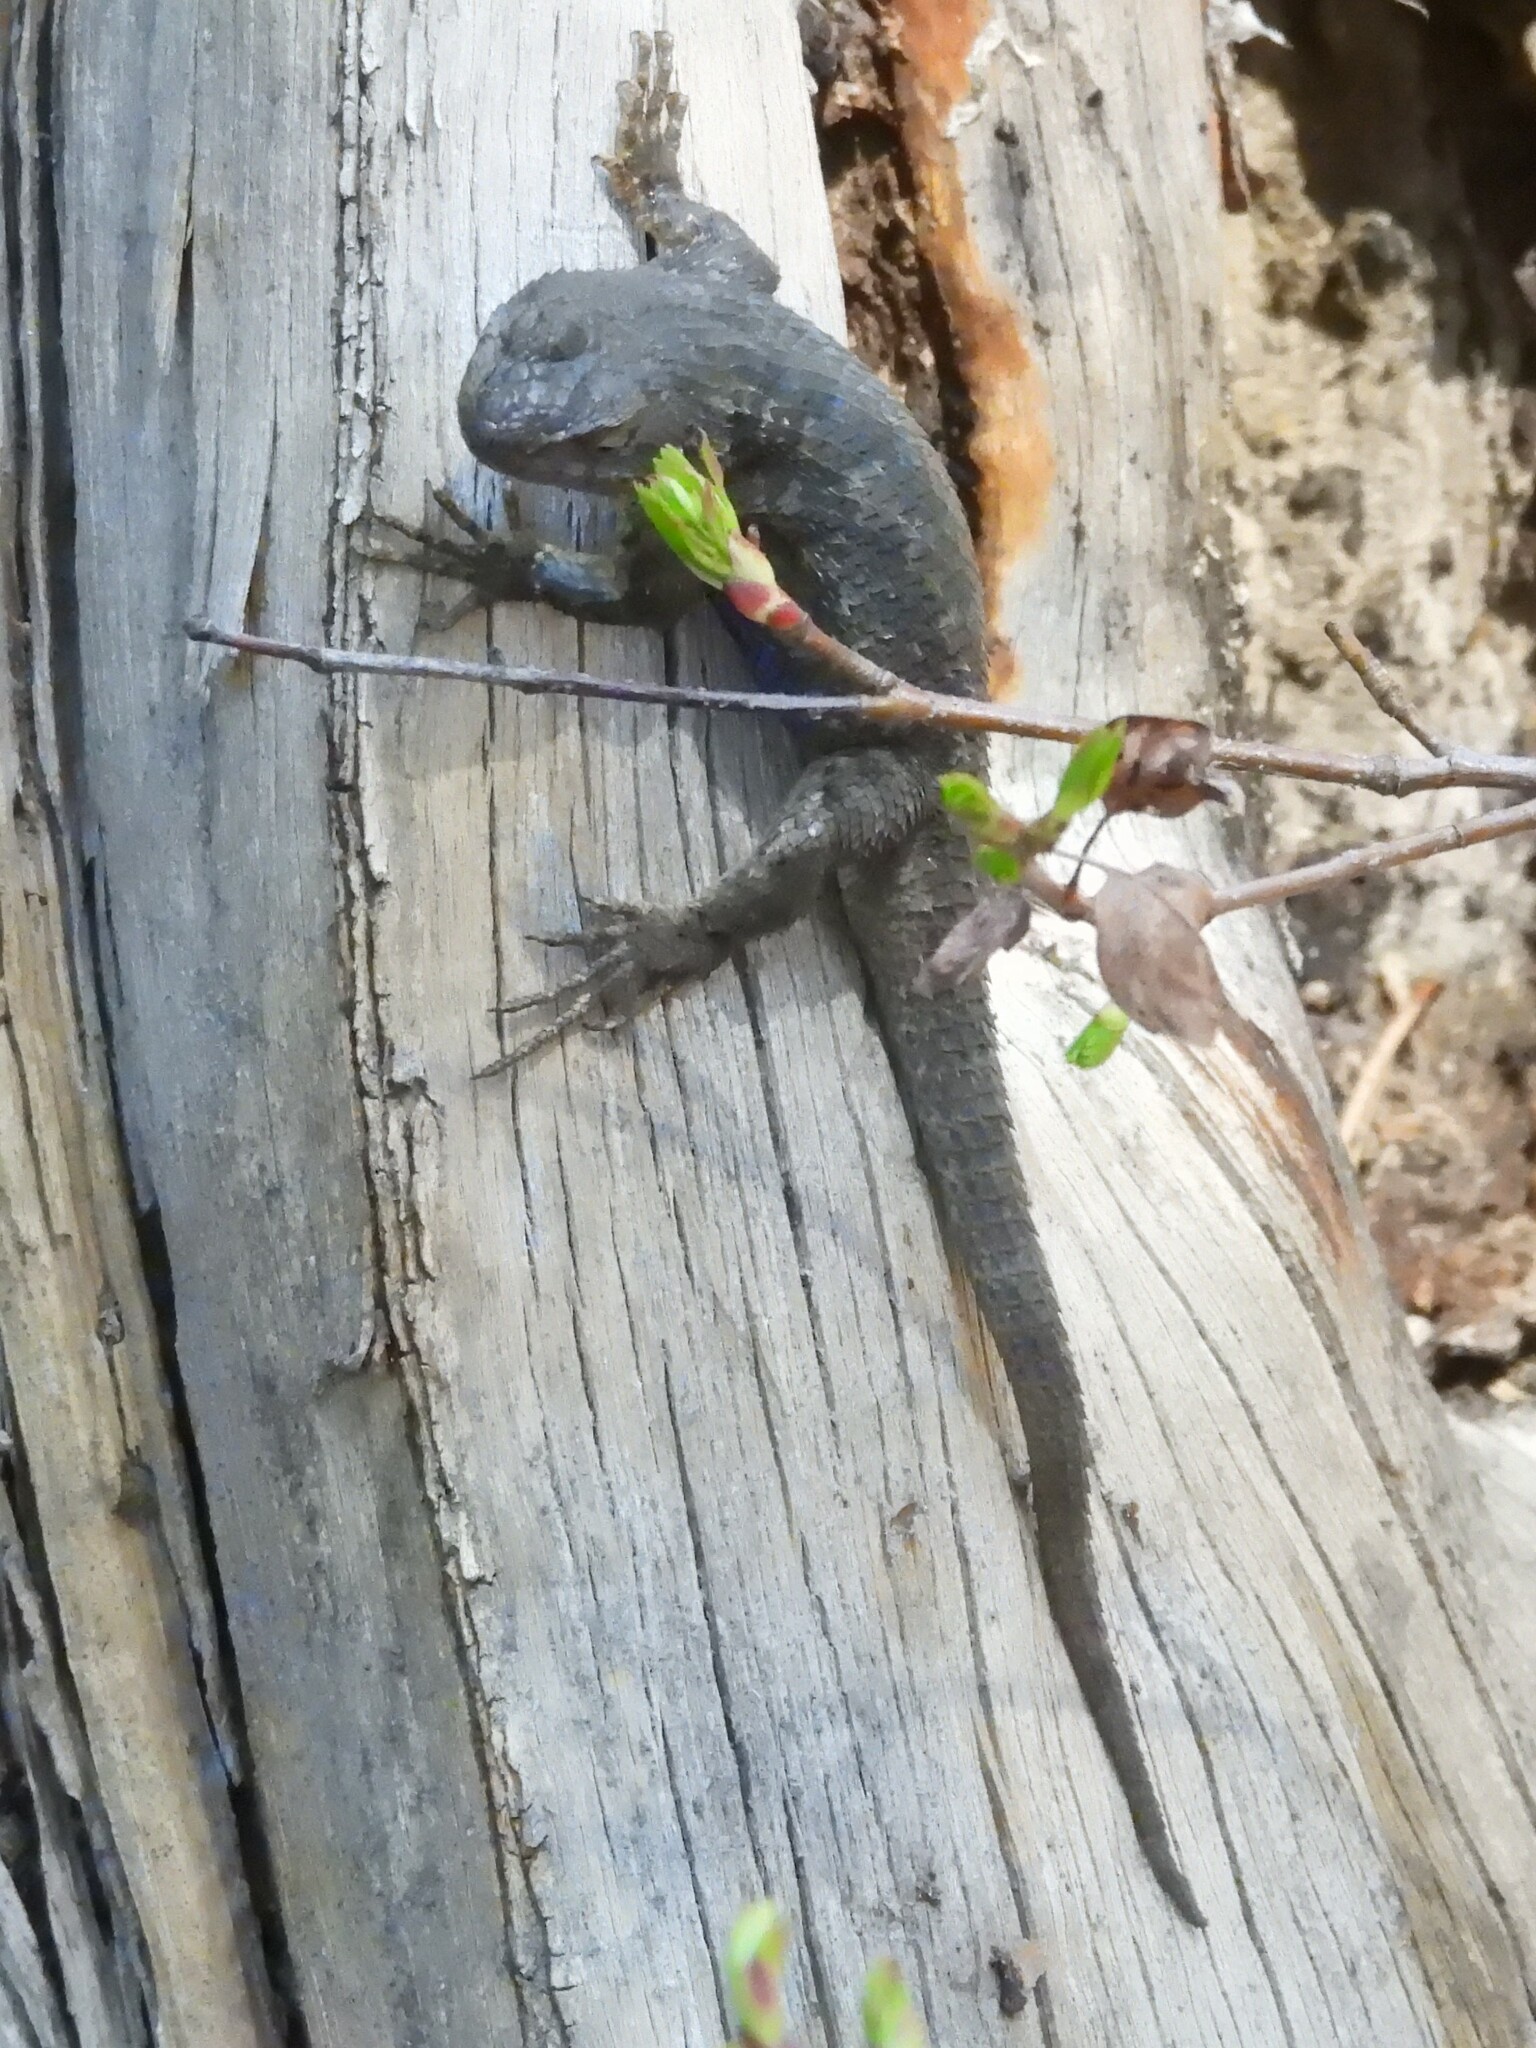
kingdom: Animalia
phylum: Chordata
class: Squamata
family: Phrynosomatidae
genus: Sceloporus
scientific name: Sceloporus occidentalis
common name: Western fence lizard
